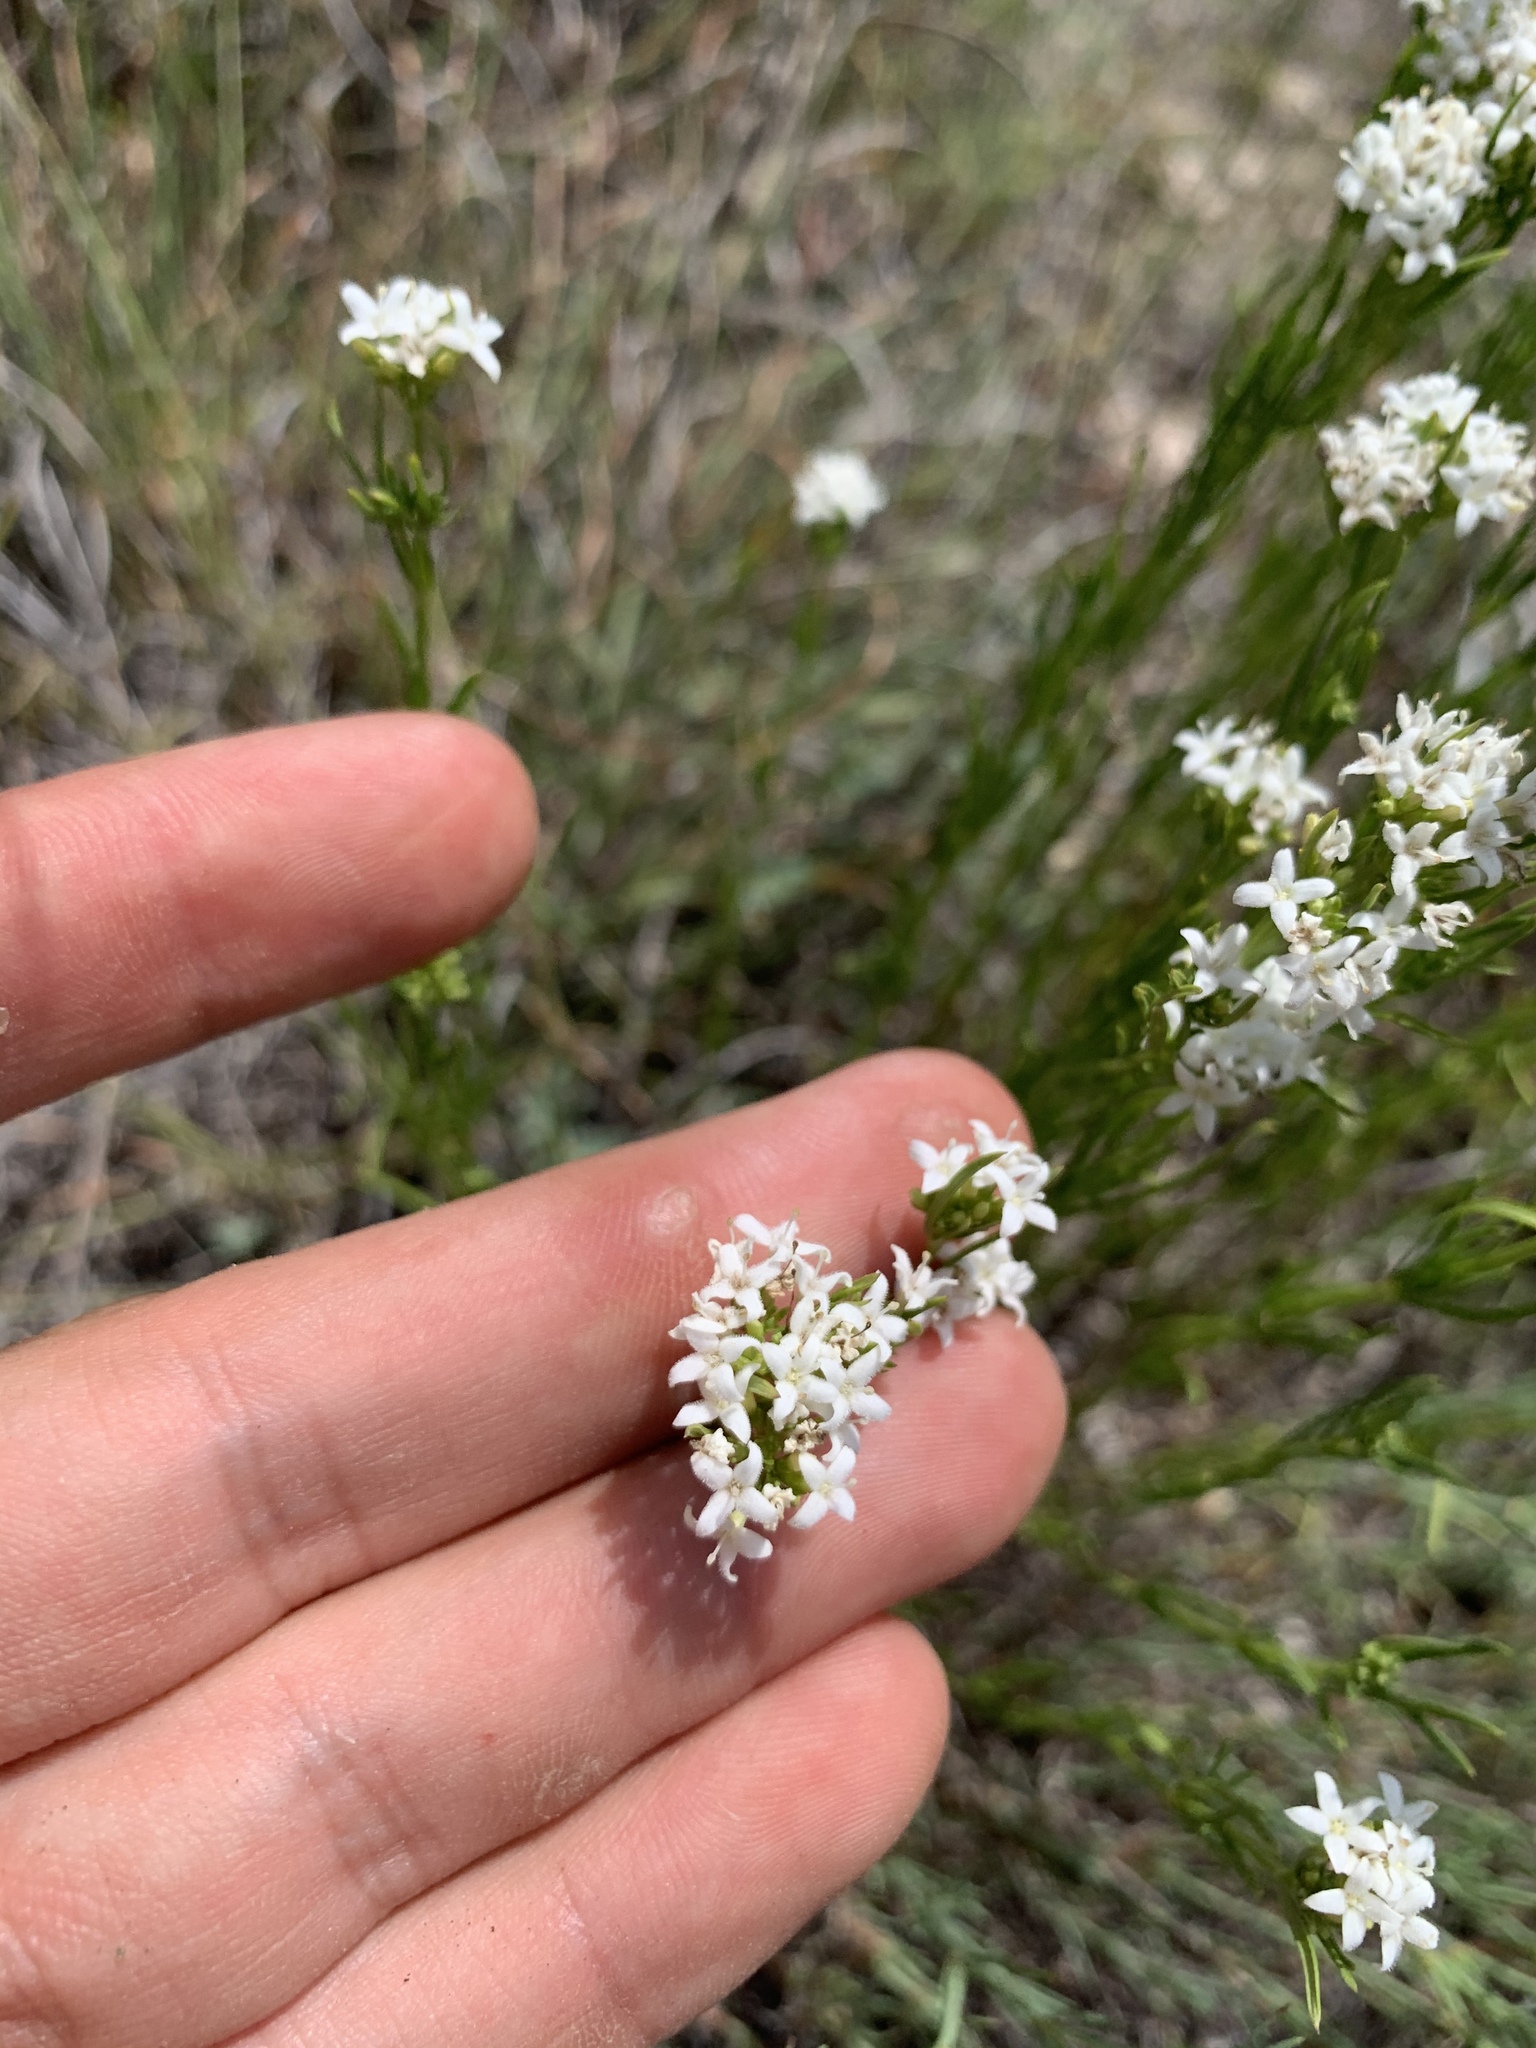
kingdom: Plantae
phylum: Tracheophyta
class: Magnoliopsida
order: Gentianales
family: Rubiaceae
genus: Stenaria
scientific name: Stenaria nigricans
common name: Diamondflowers
